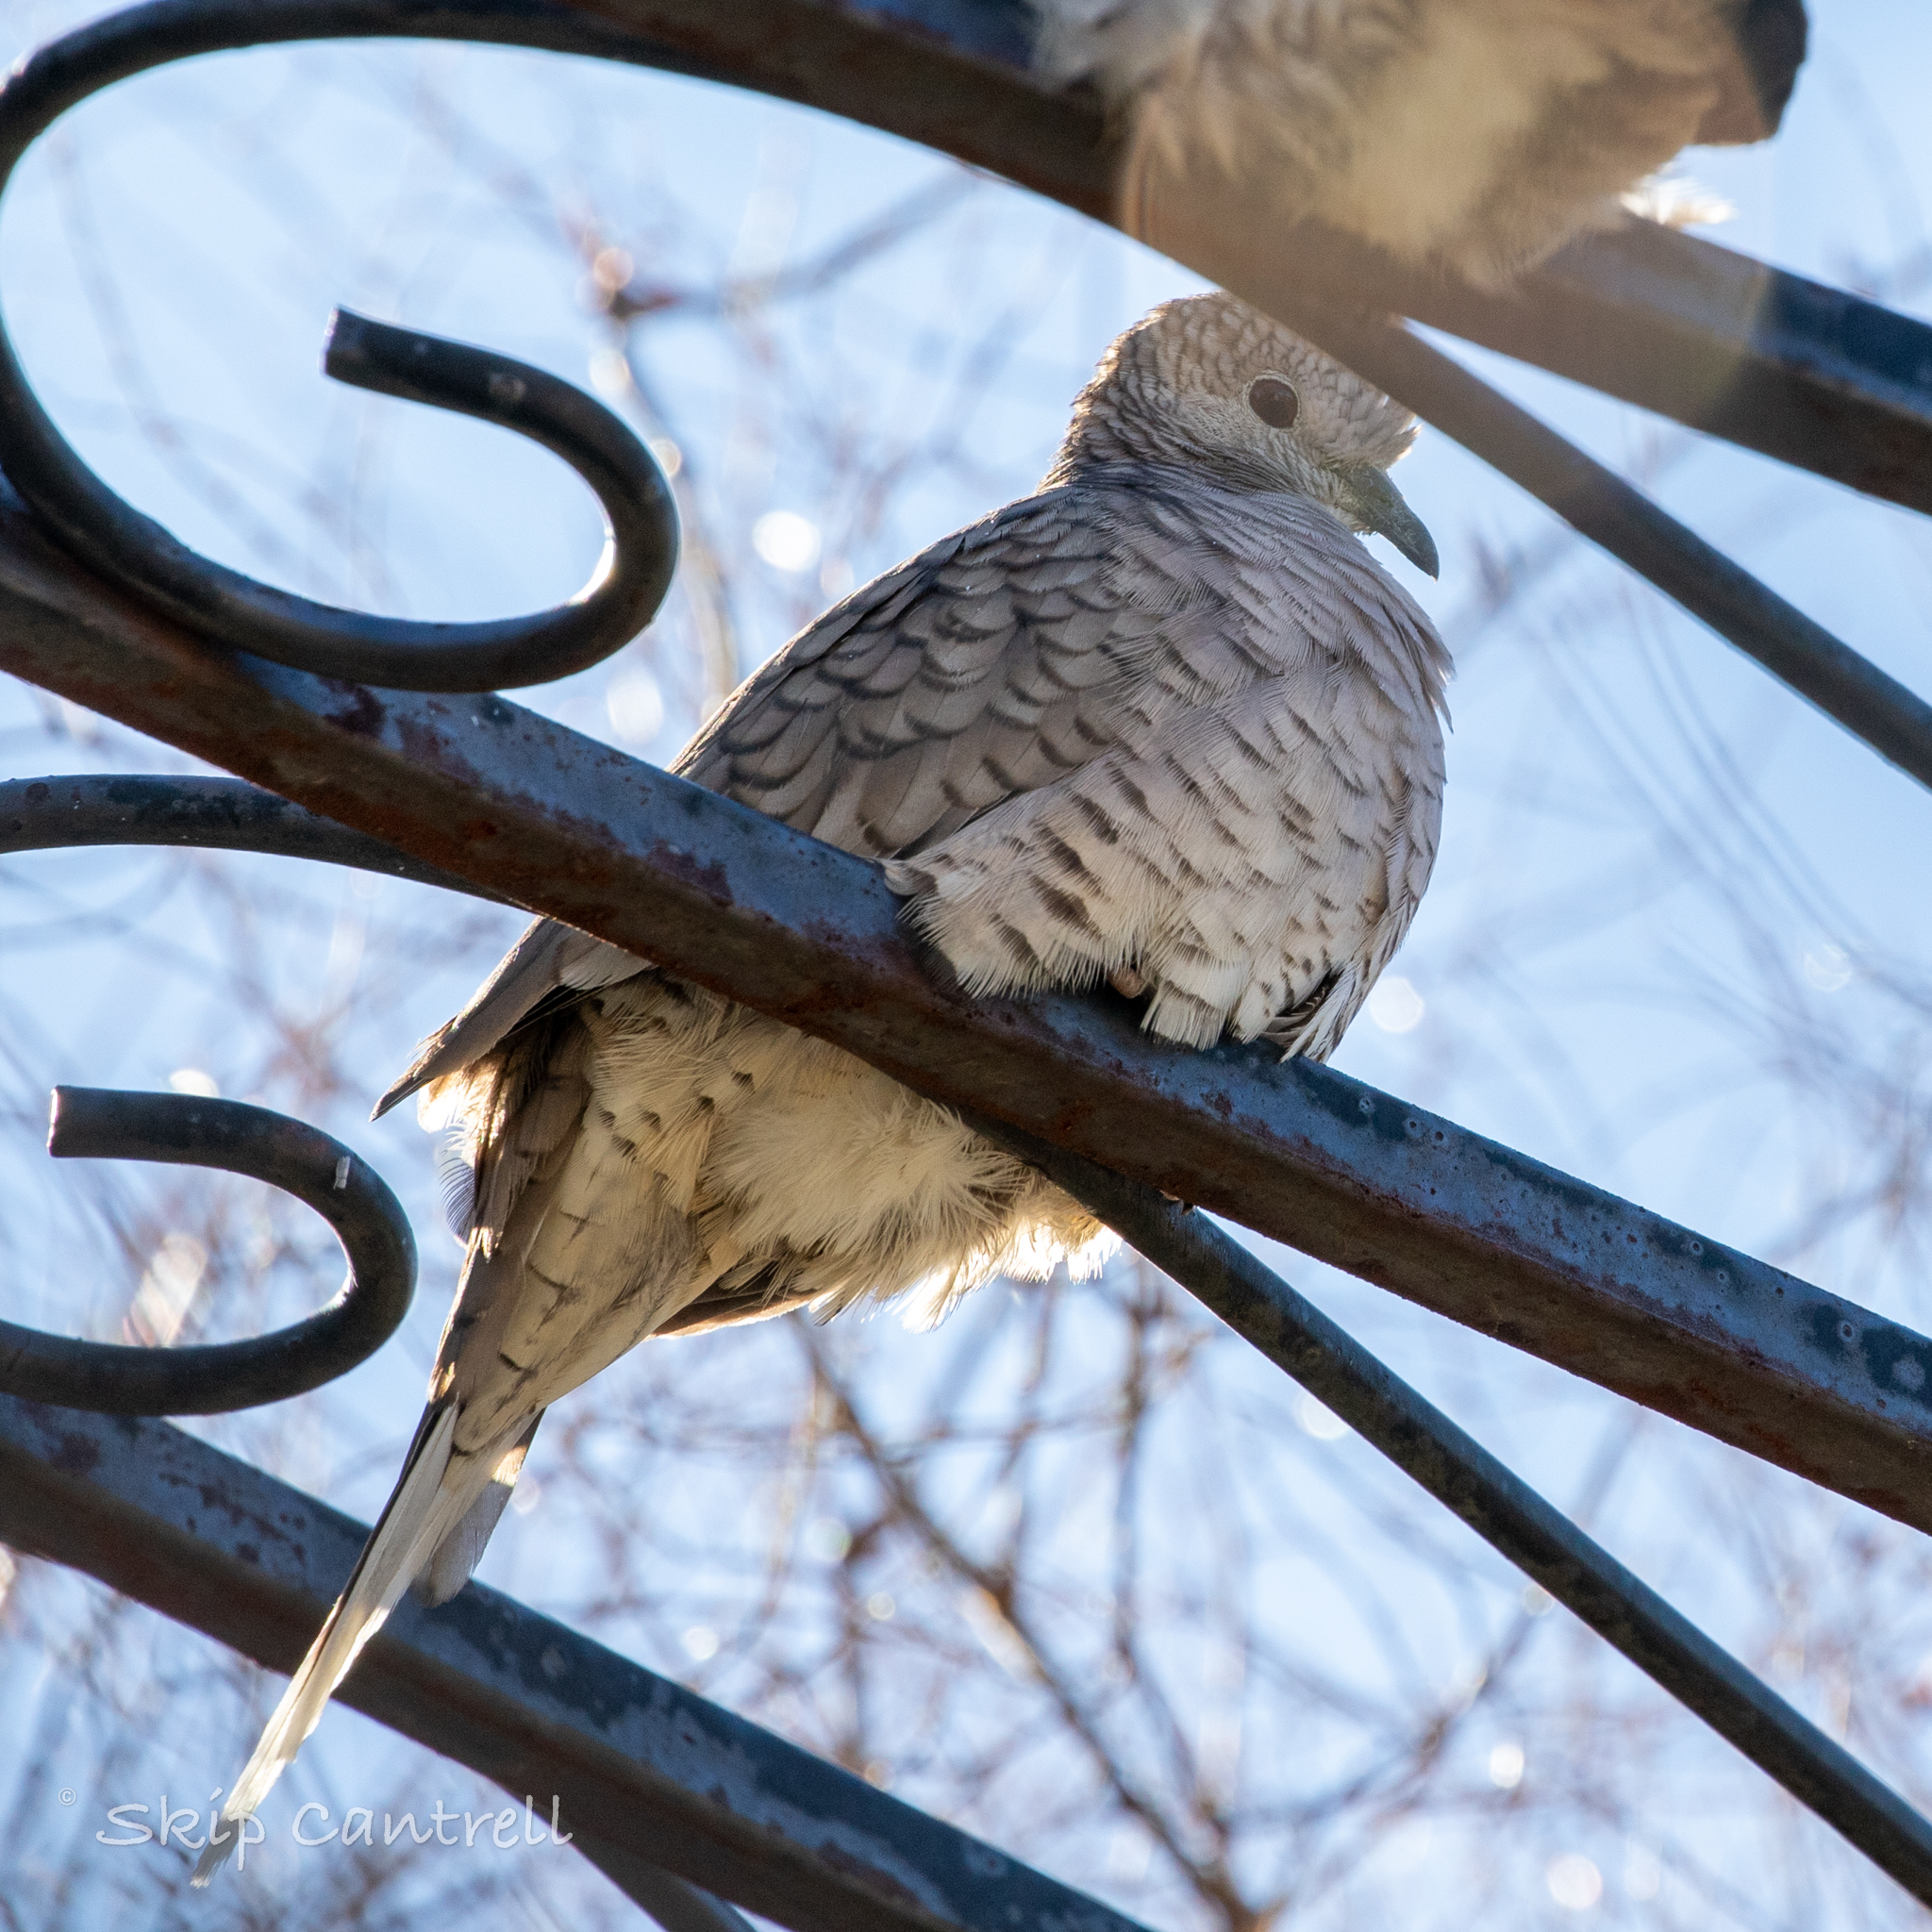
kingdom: Animalia
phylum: Chordata
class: Aves
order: Columbiformes
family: Columbidae
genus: Columbina
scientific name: Columbina inca
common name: Inca dove
